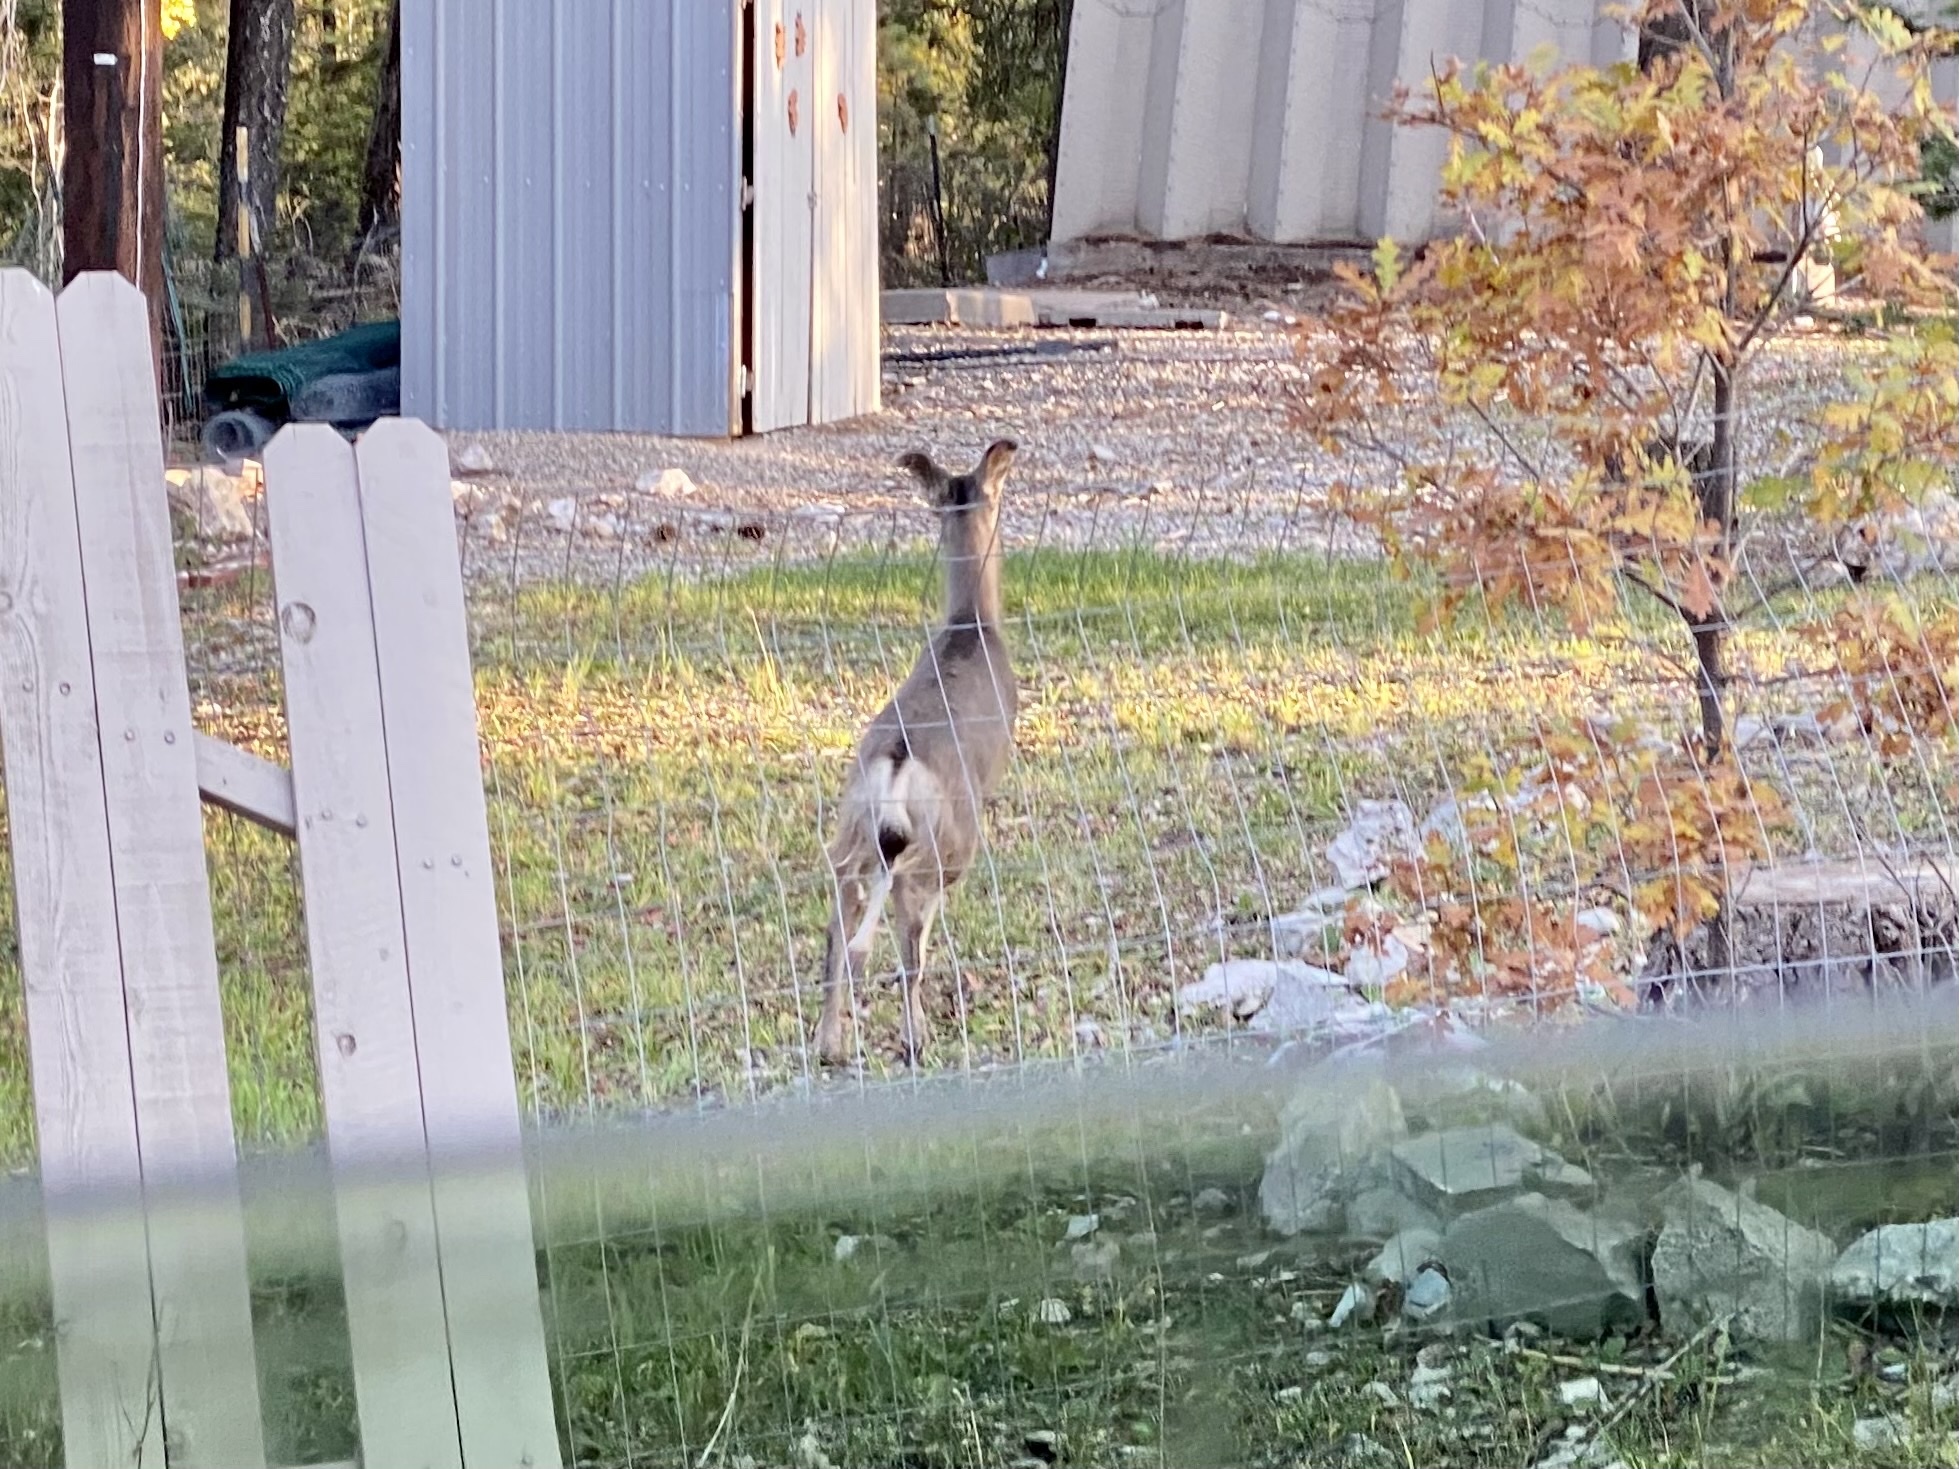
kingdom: Animalia
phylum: Chordata
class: Mammalia
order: Artiodactyla
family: Cervidae
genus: Odocoileus
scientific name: Odocoileus hemionus
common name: Mule deer
